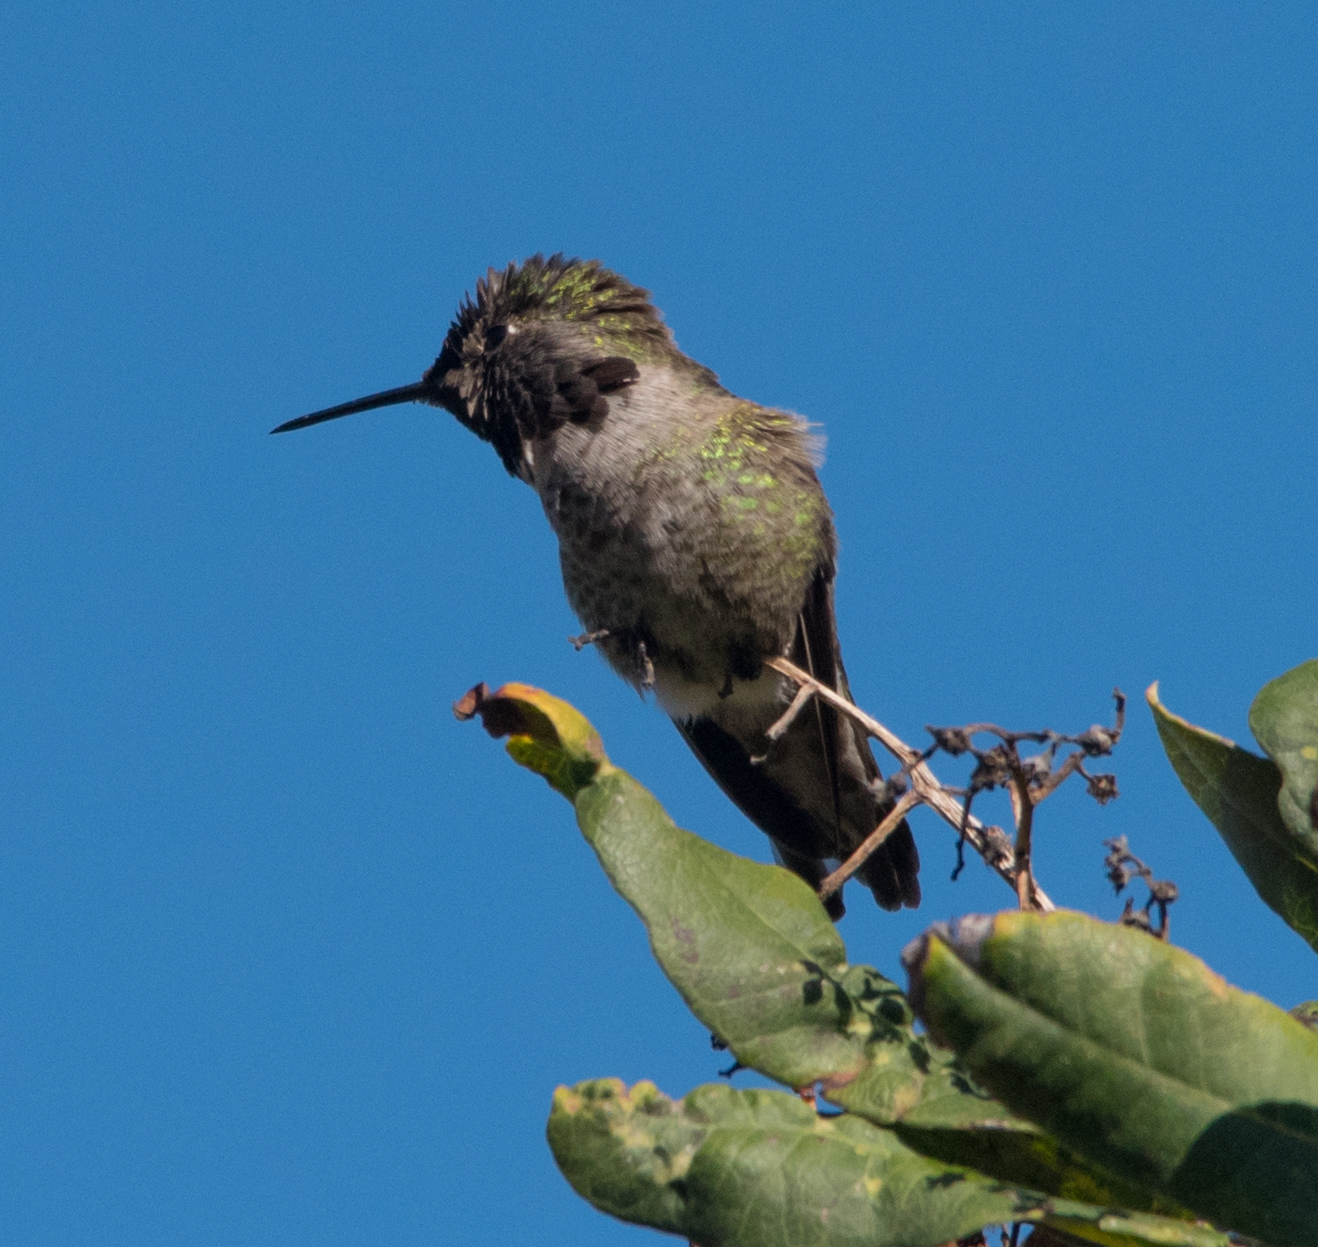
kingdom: Animalia
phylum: Chordata
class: Aves
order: Apodiformes
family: Trochilidae
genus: Calypte
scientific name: Calypte anna
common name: Anna's hummingbird
